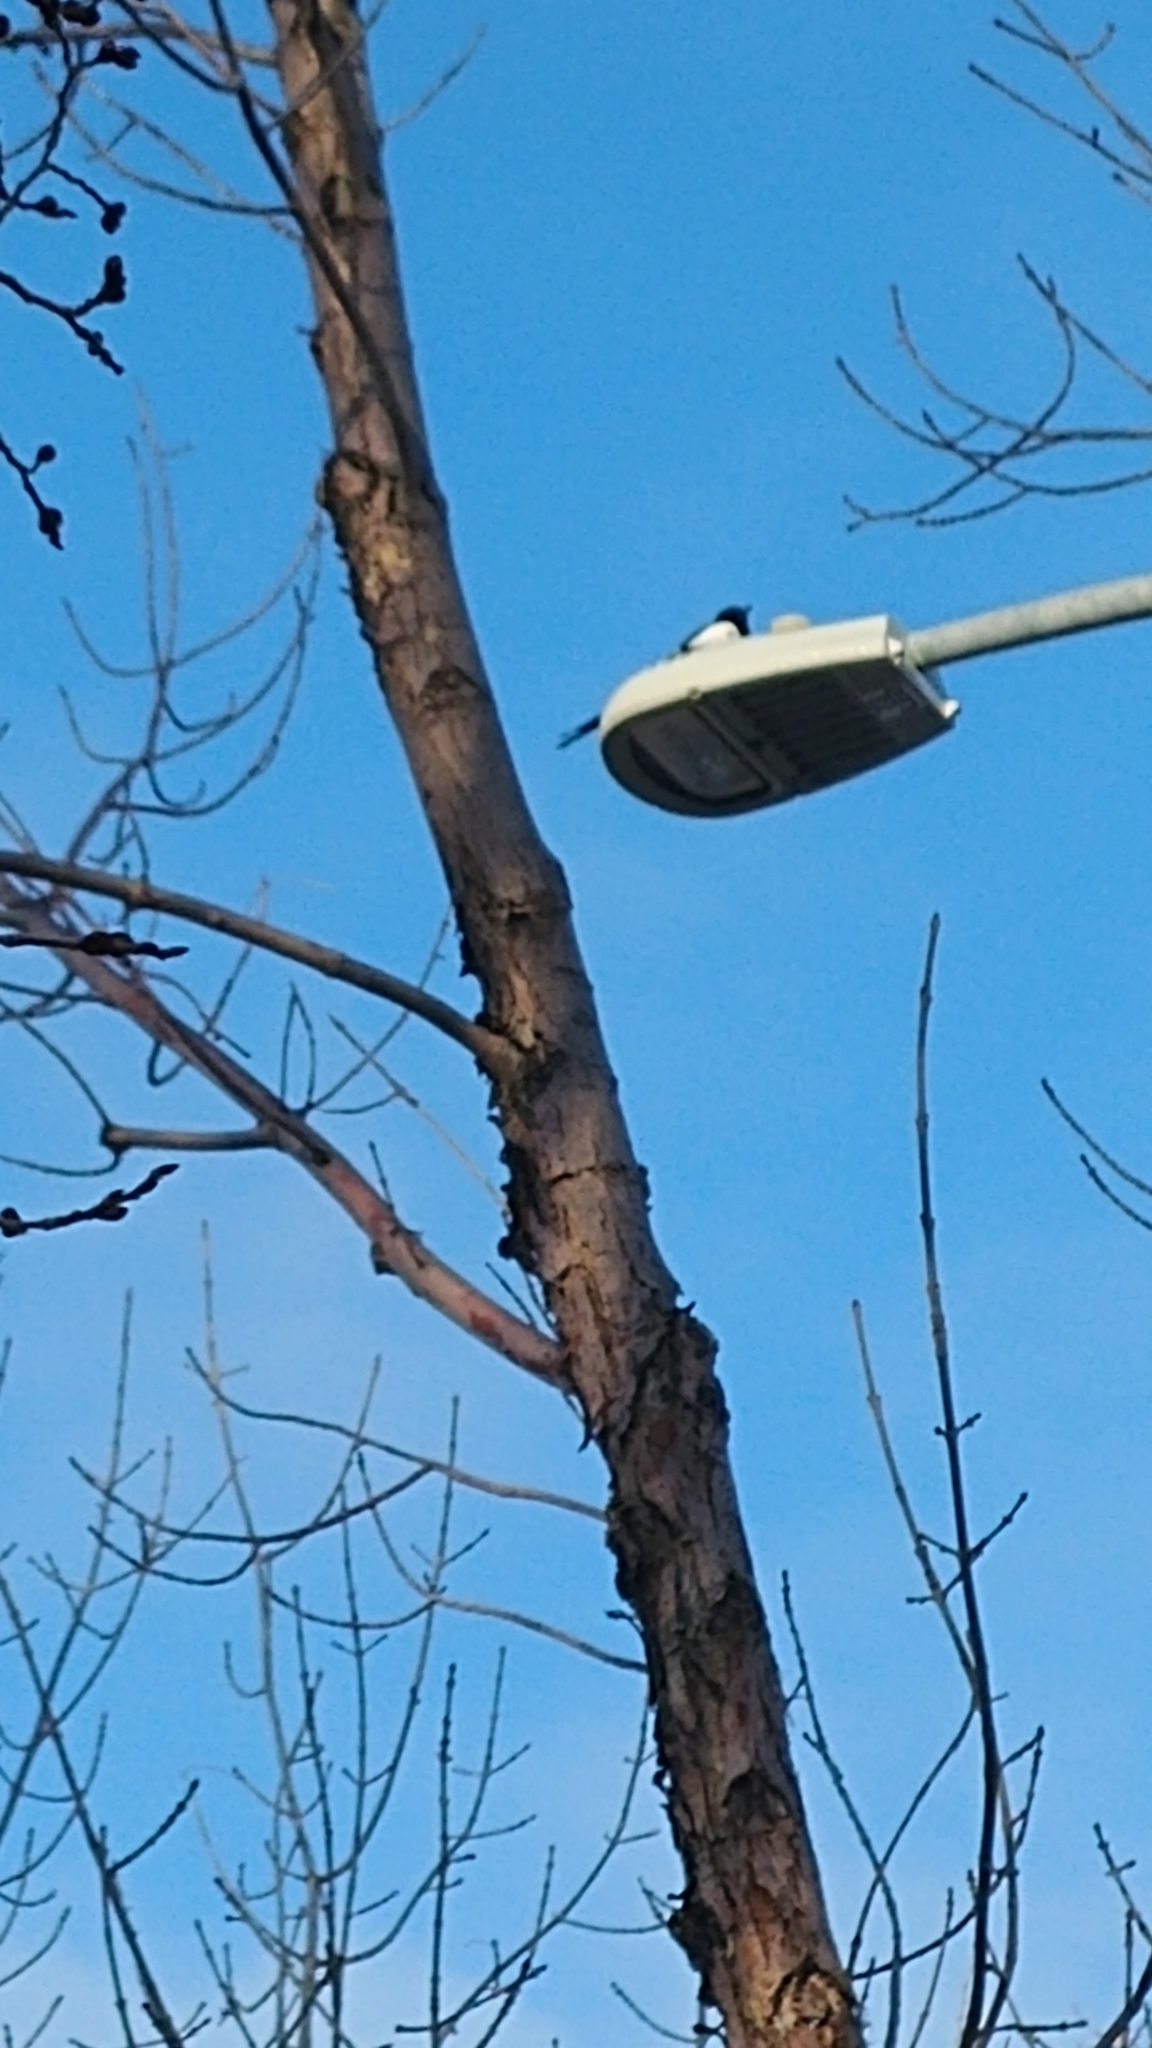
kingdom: Animalia
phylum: Chordata
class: Aves
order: Passeriformes
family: Corvidae
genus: Pica
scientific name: Pica hudsonia
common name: Black-billed magpie
